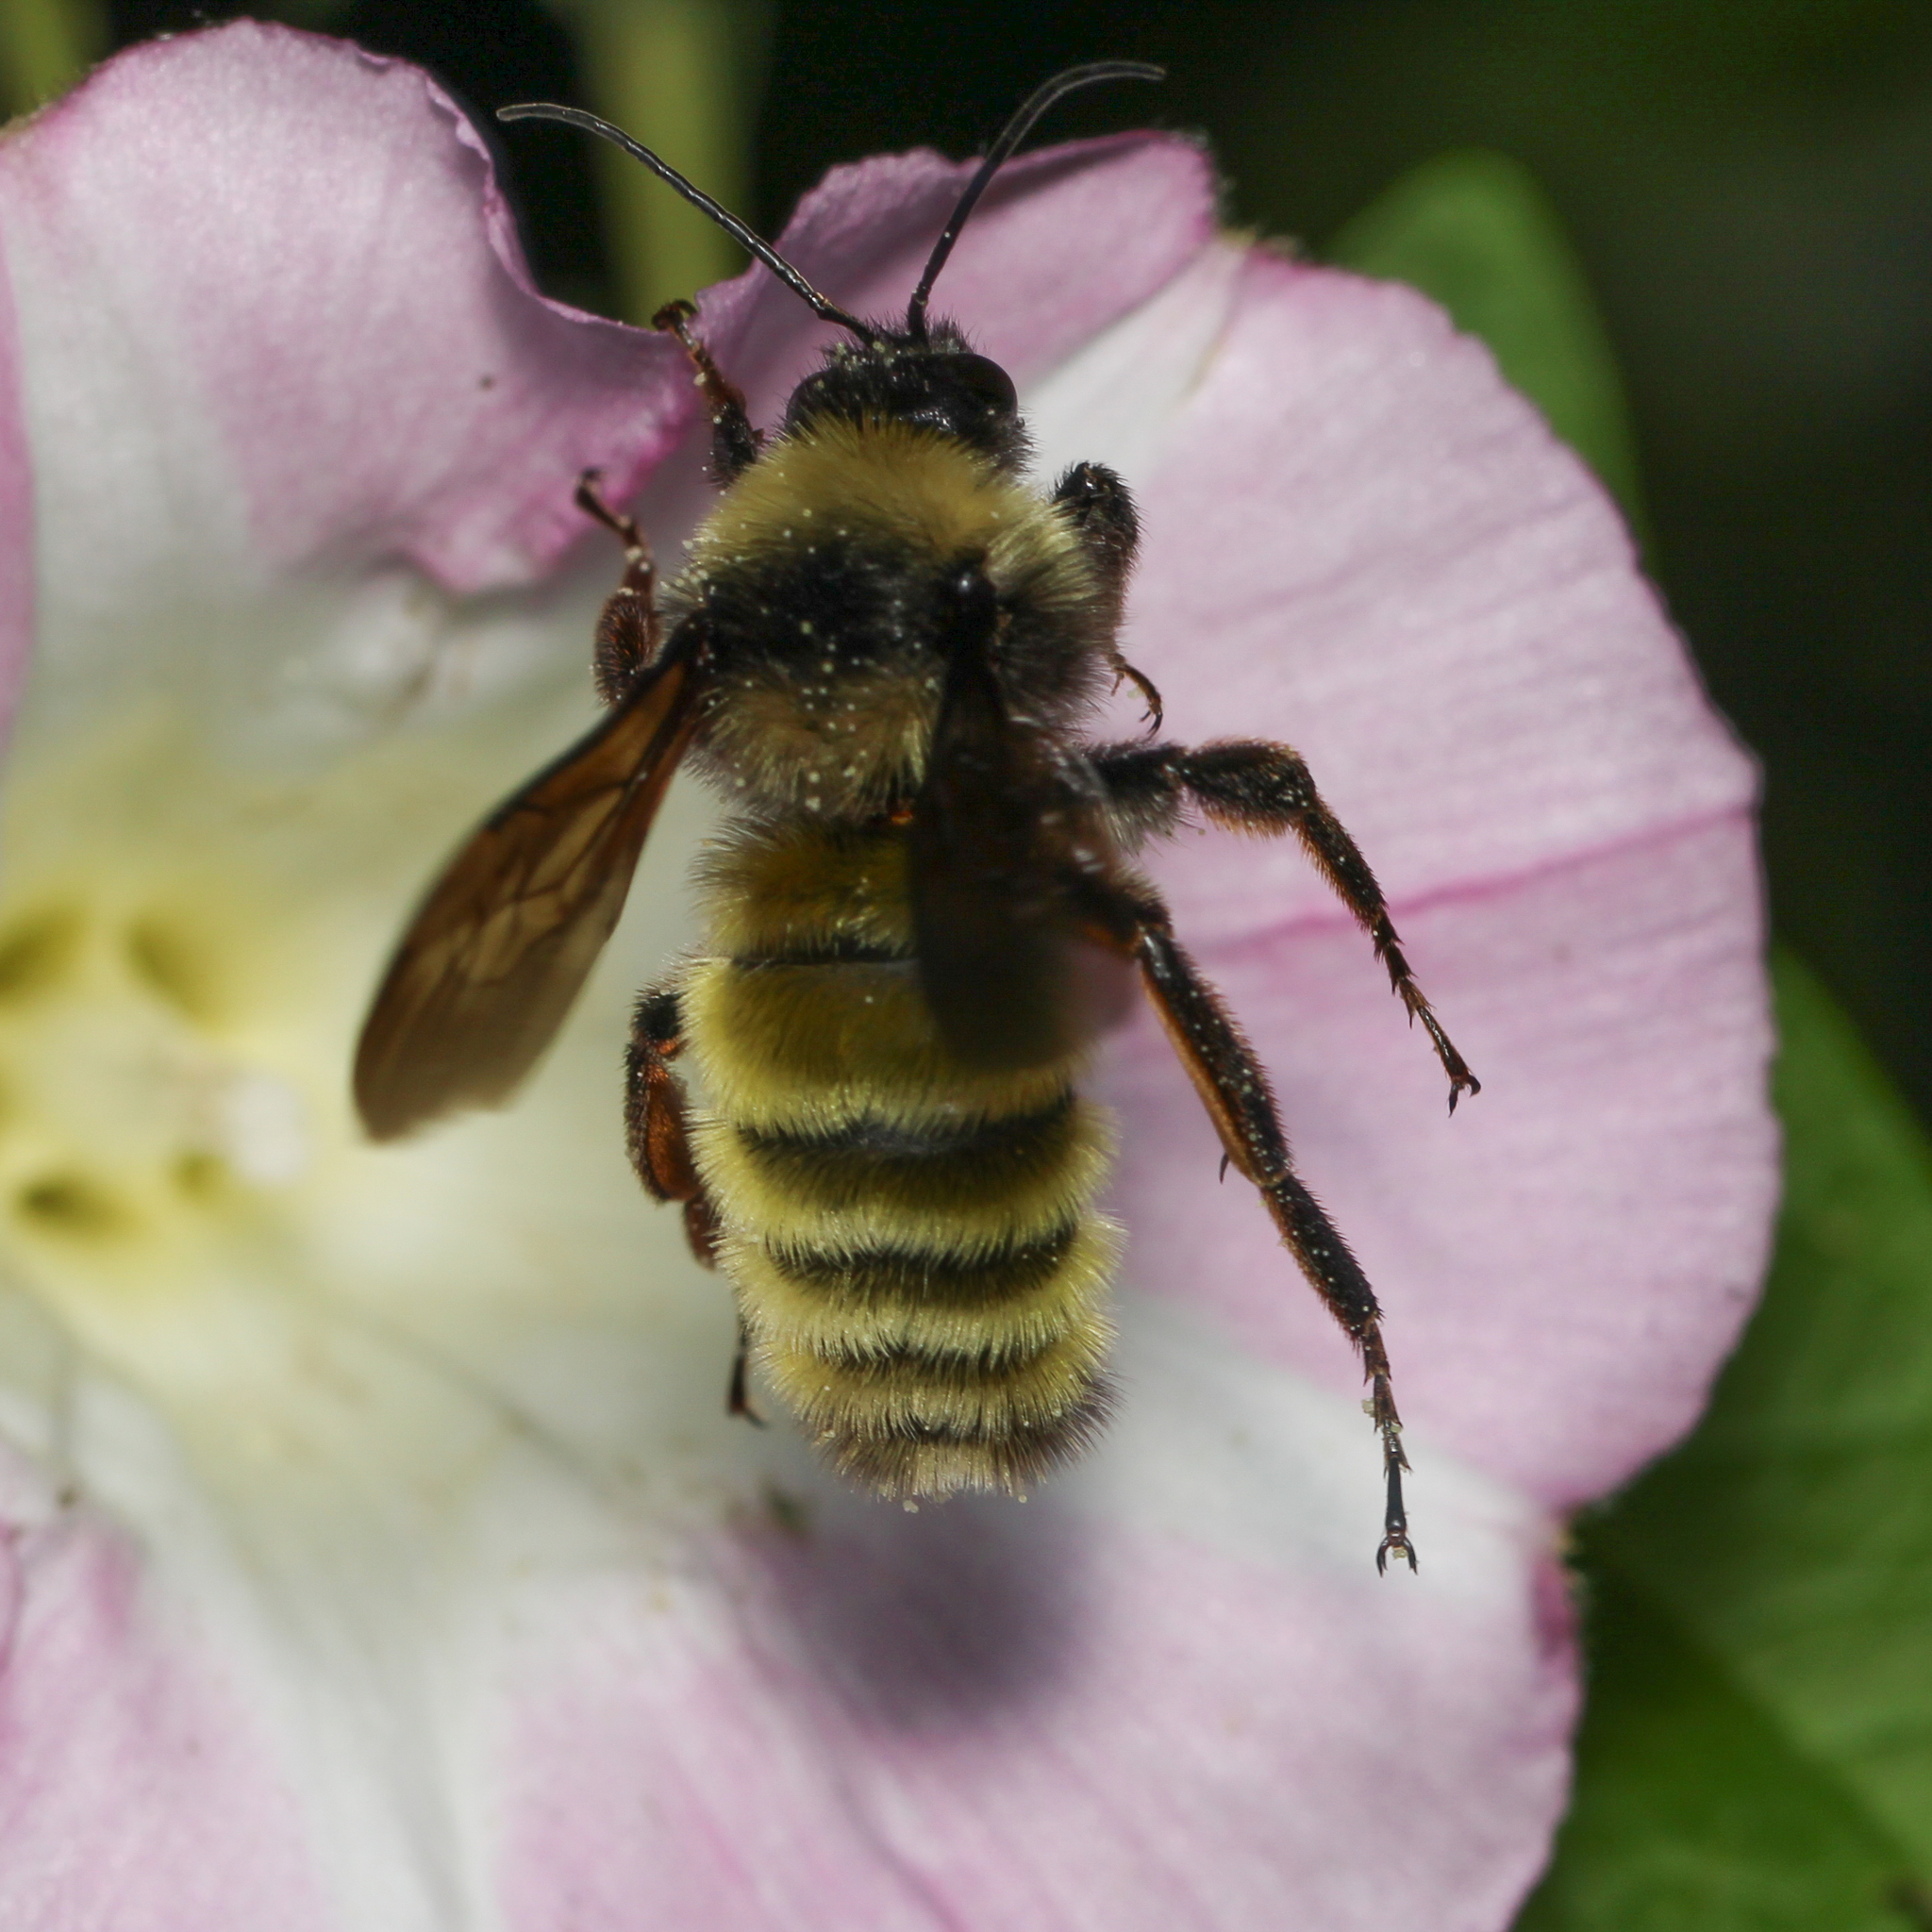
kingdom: Animalia
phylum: Arthropoda
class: Insecta
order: Hymenoptera
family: Apidae
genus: Bombus
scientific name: Bombus pensylvanicus
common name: Bumble bee
